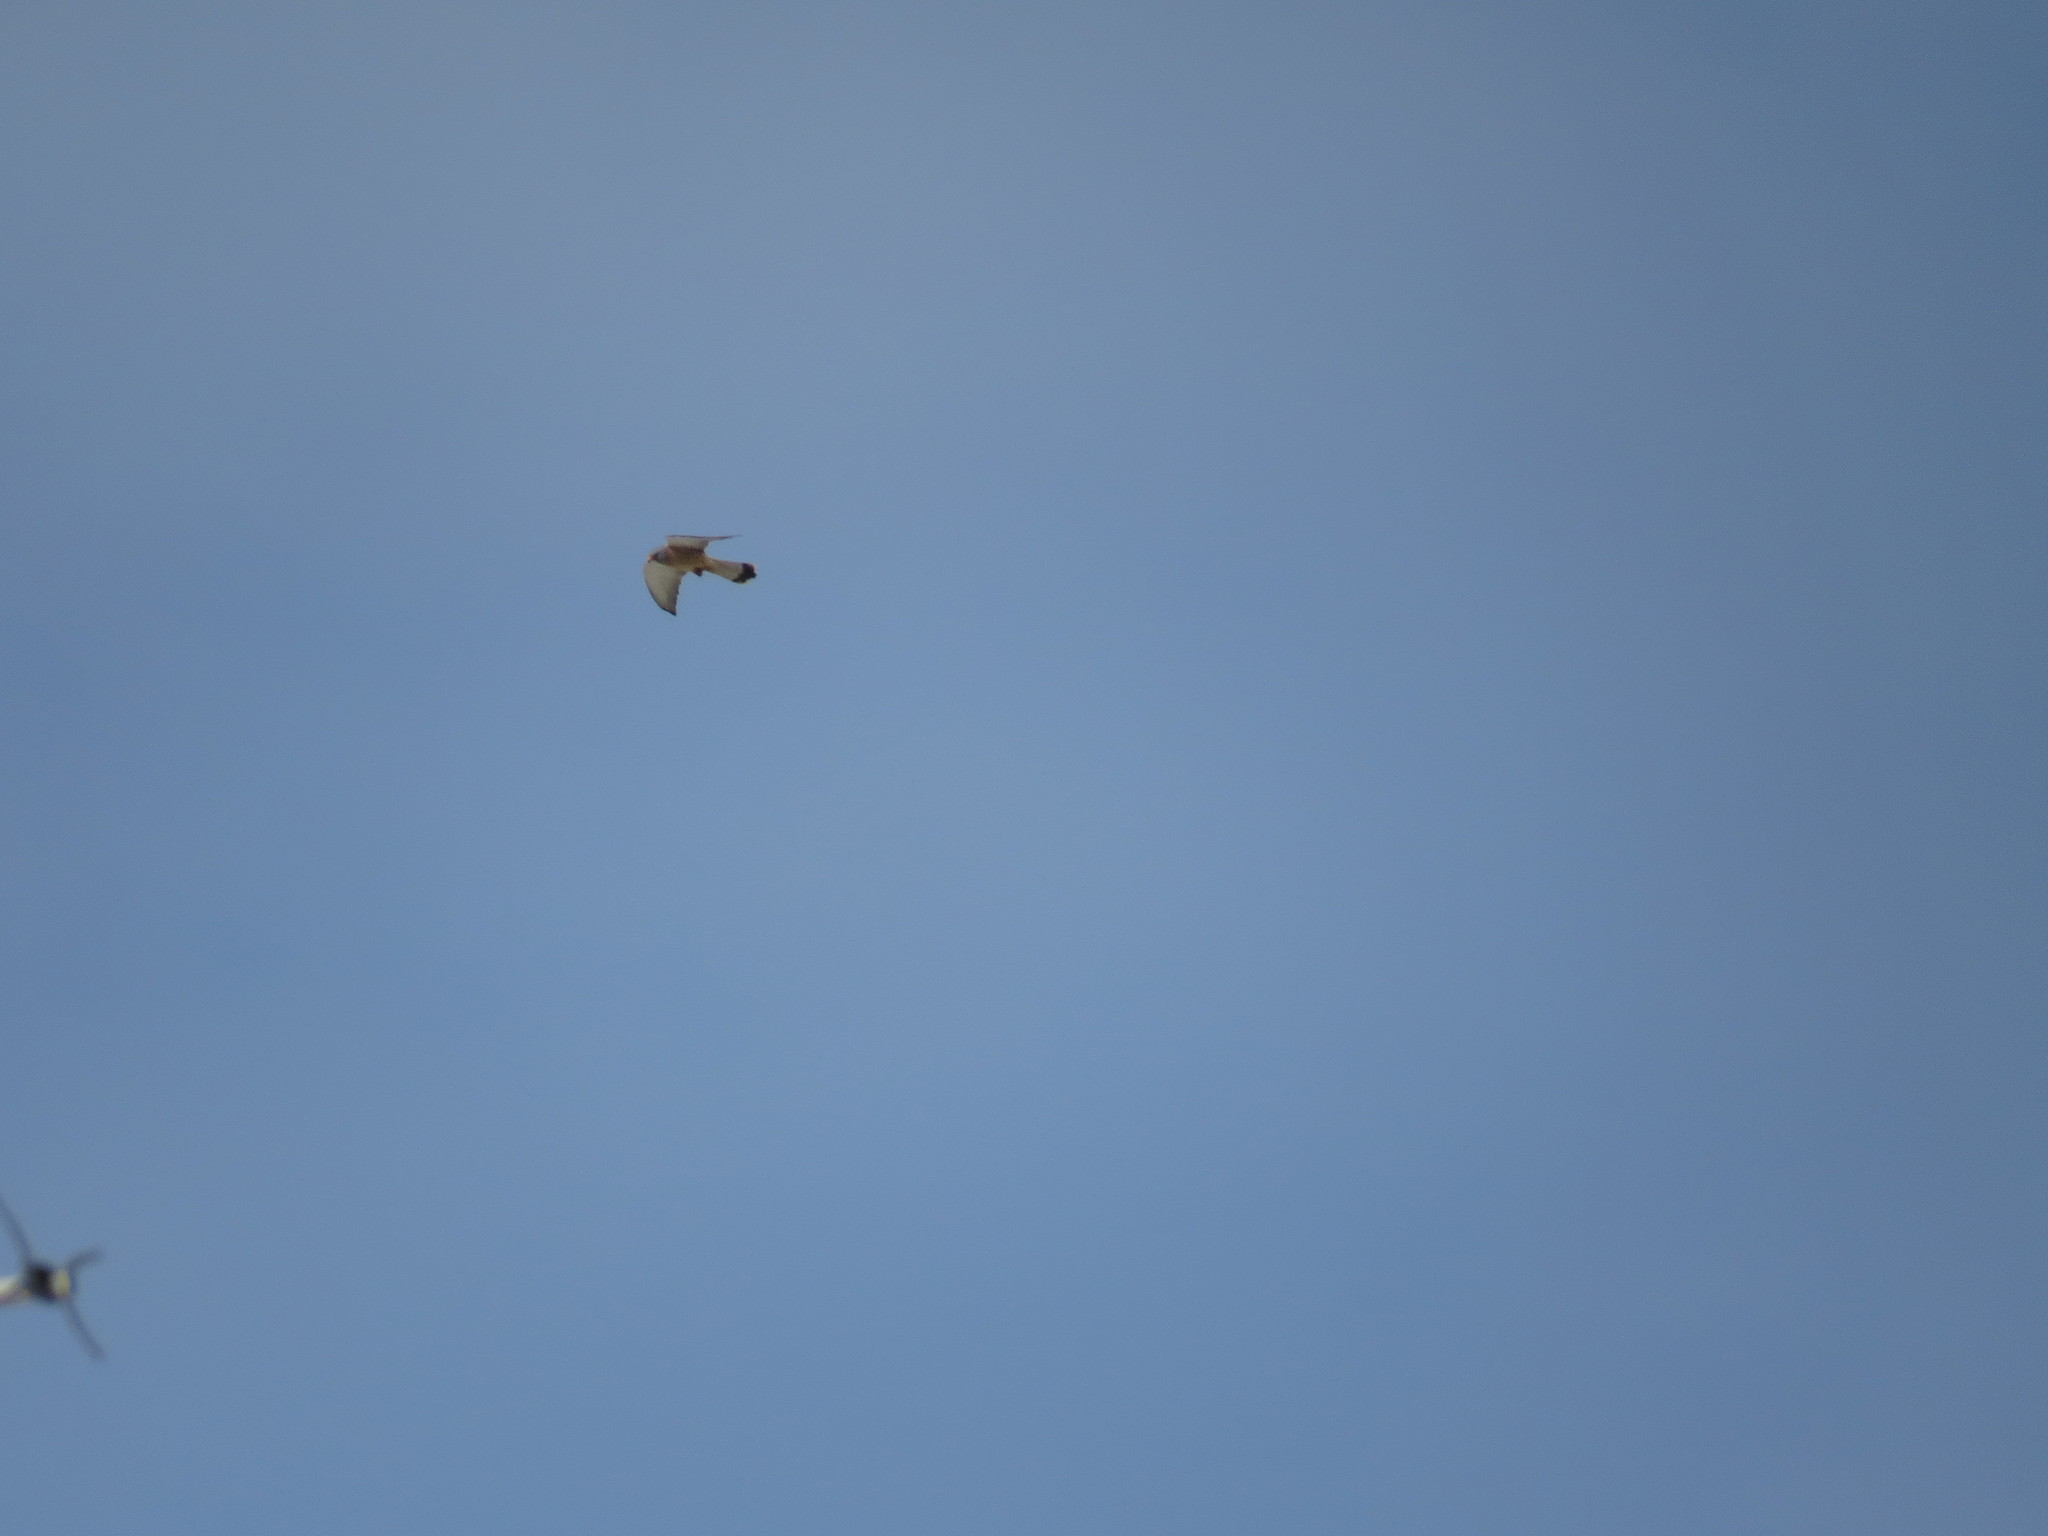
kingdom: Animalia
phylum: Chordata
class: Aves
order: Falconiformes
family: Falconidae
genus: Falco
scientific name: Falco naumanni
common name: Lesser kestrel
